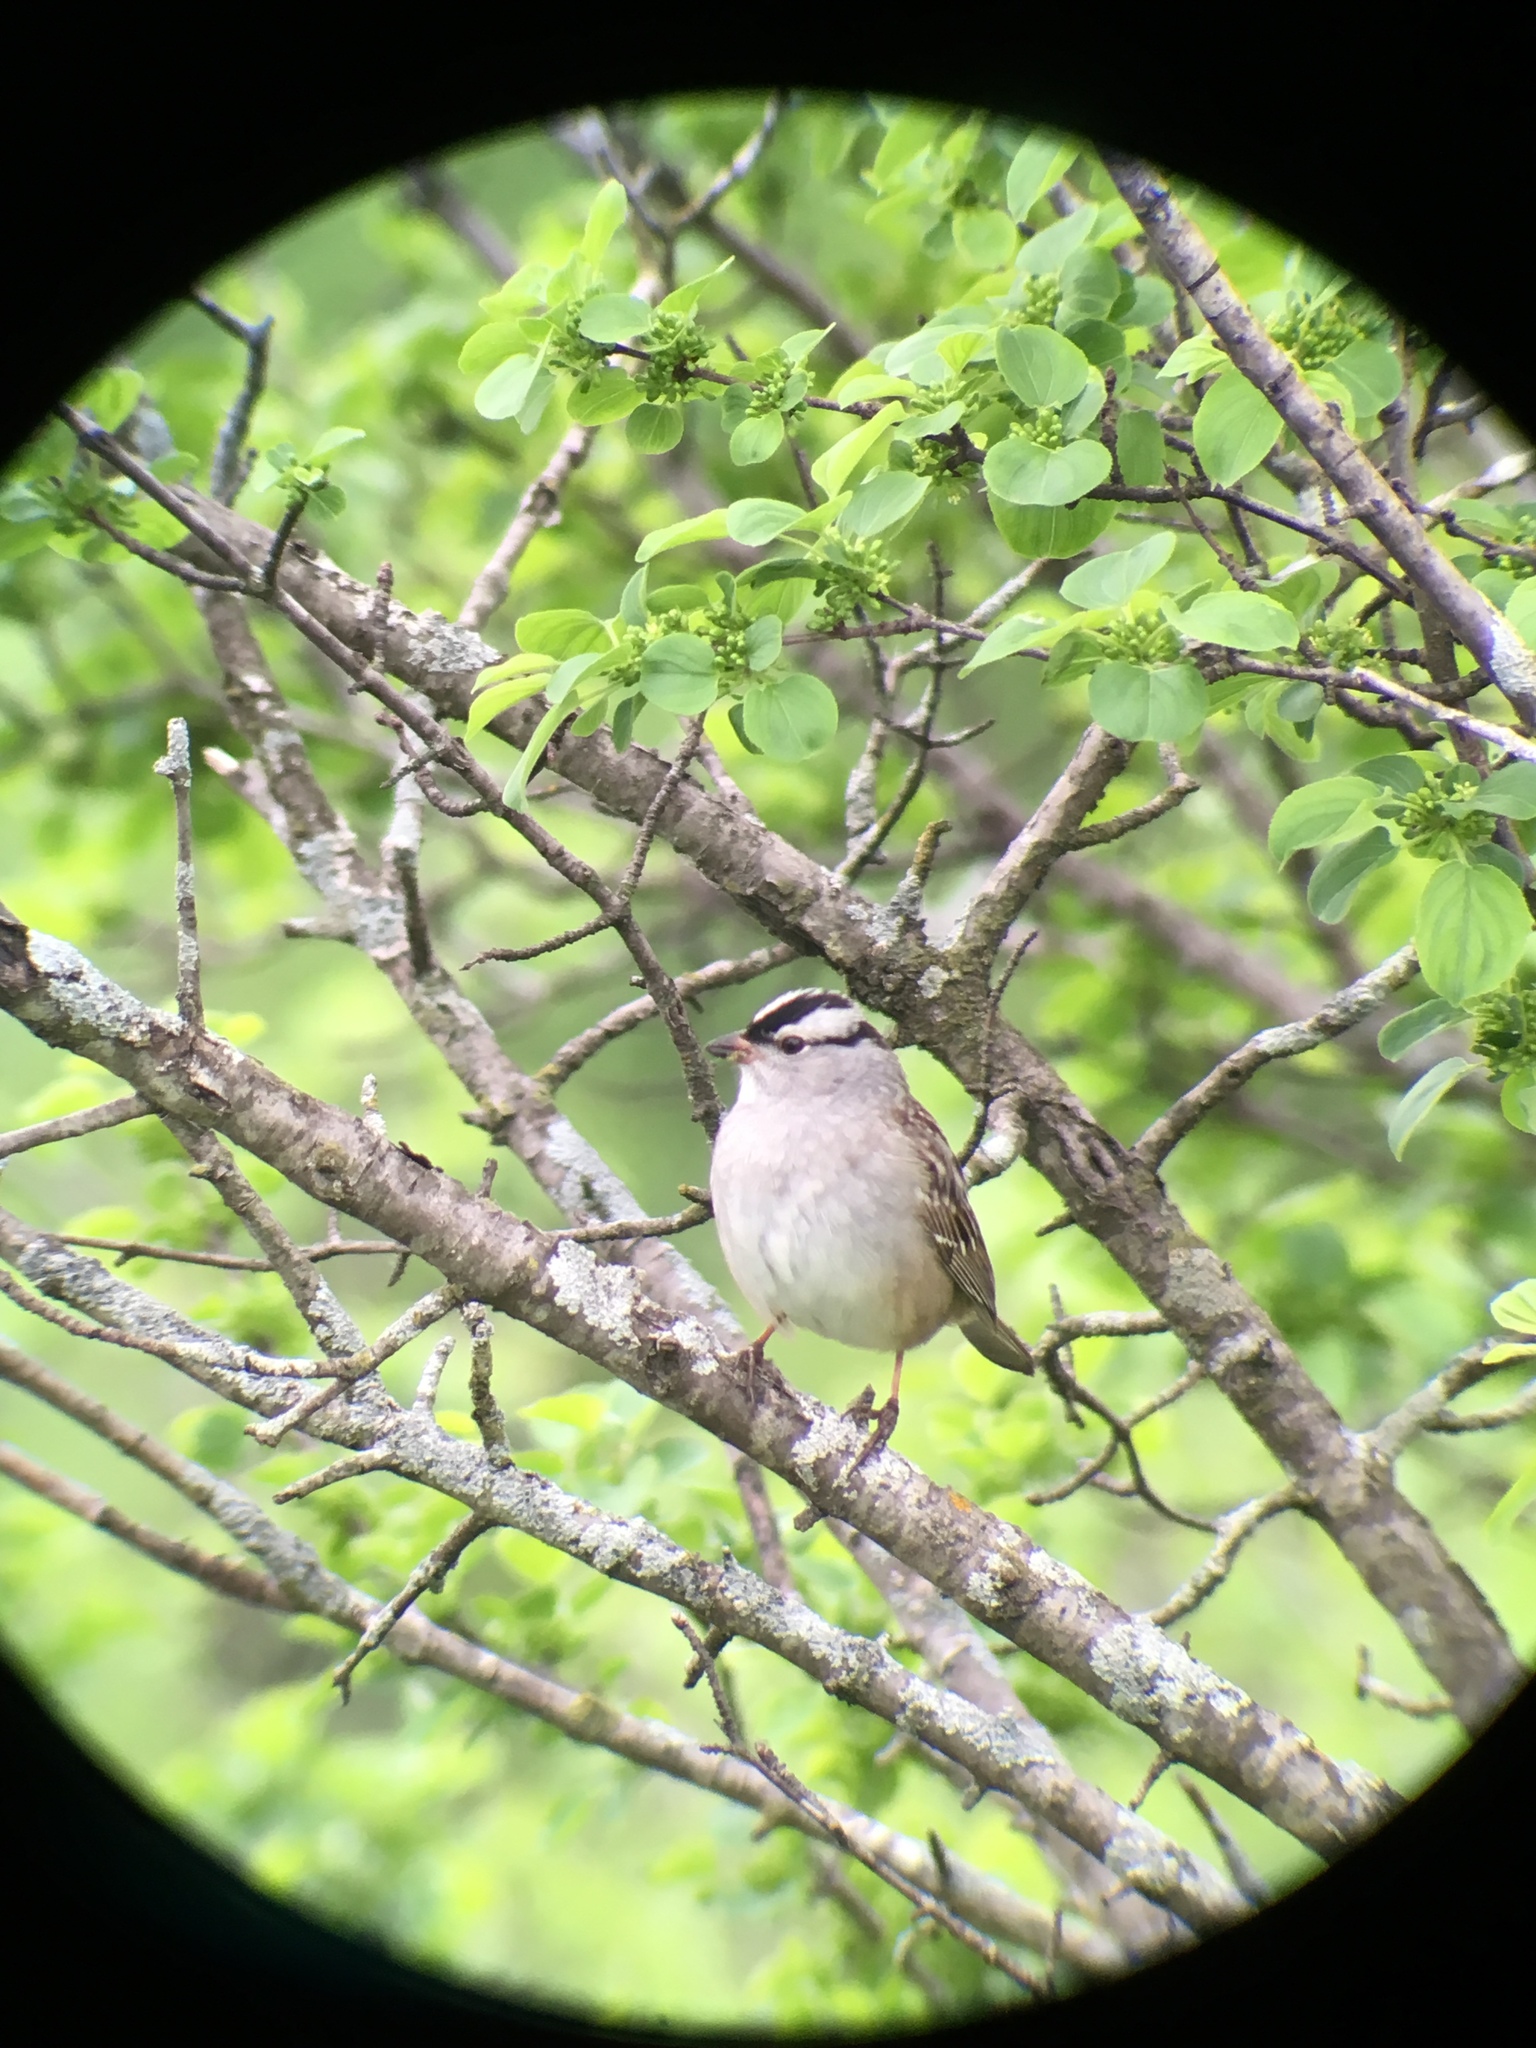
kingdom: Animalia
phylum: Chordata
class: Aves
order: Passeriformes
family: Passerellidae
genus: Zonotrichia
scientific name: Zonotrichia leucophrys
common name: White-crowned sparrow
